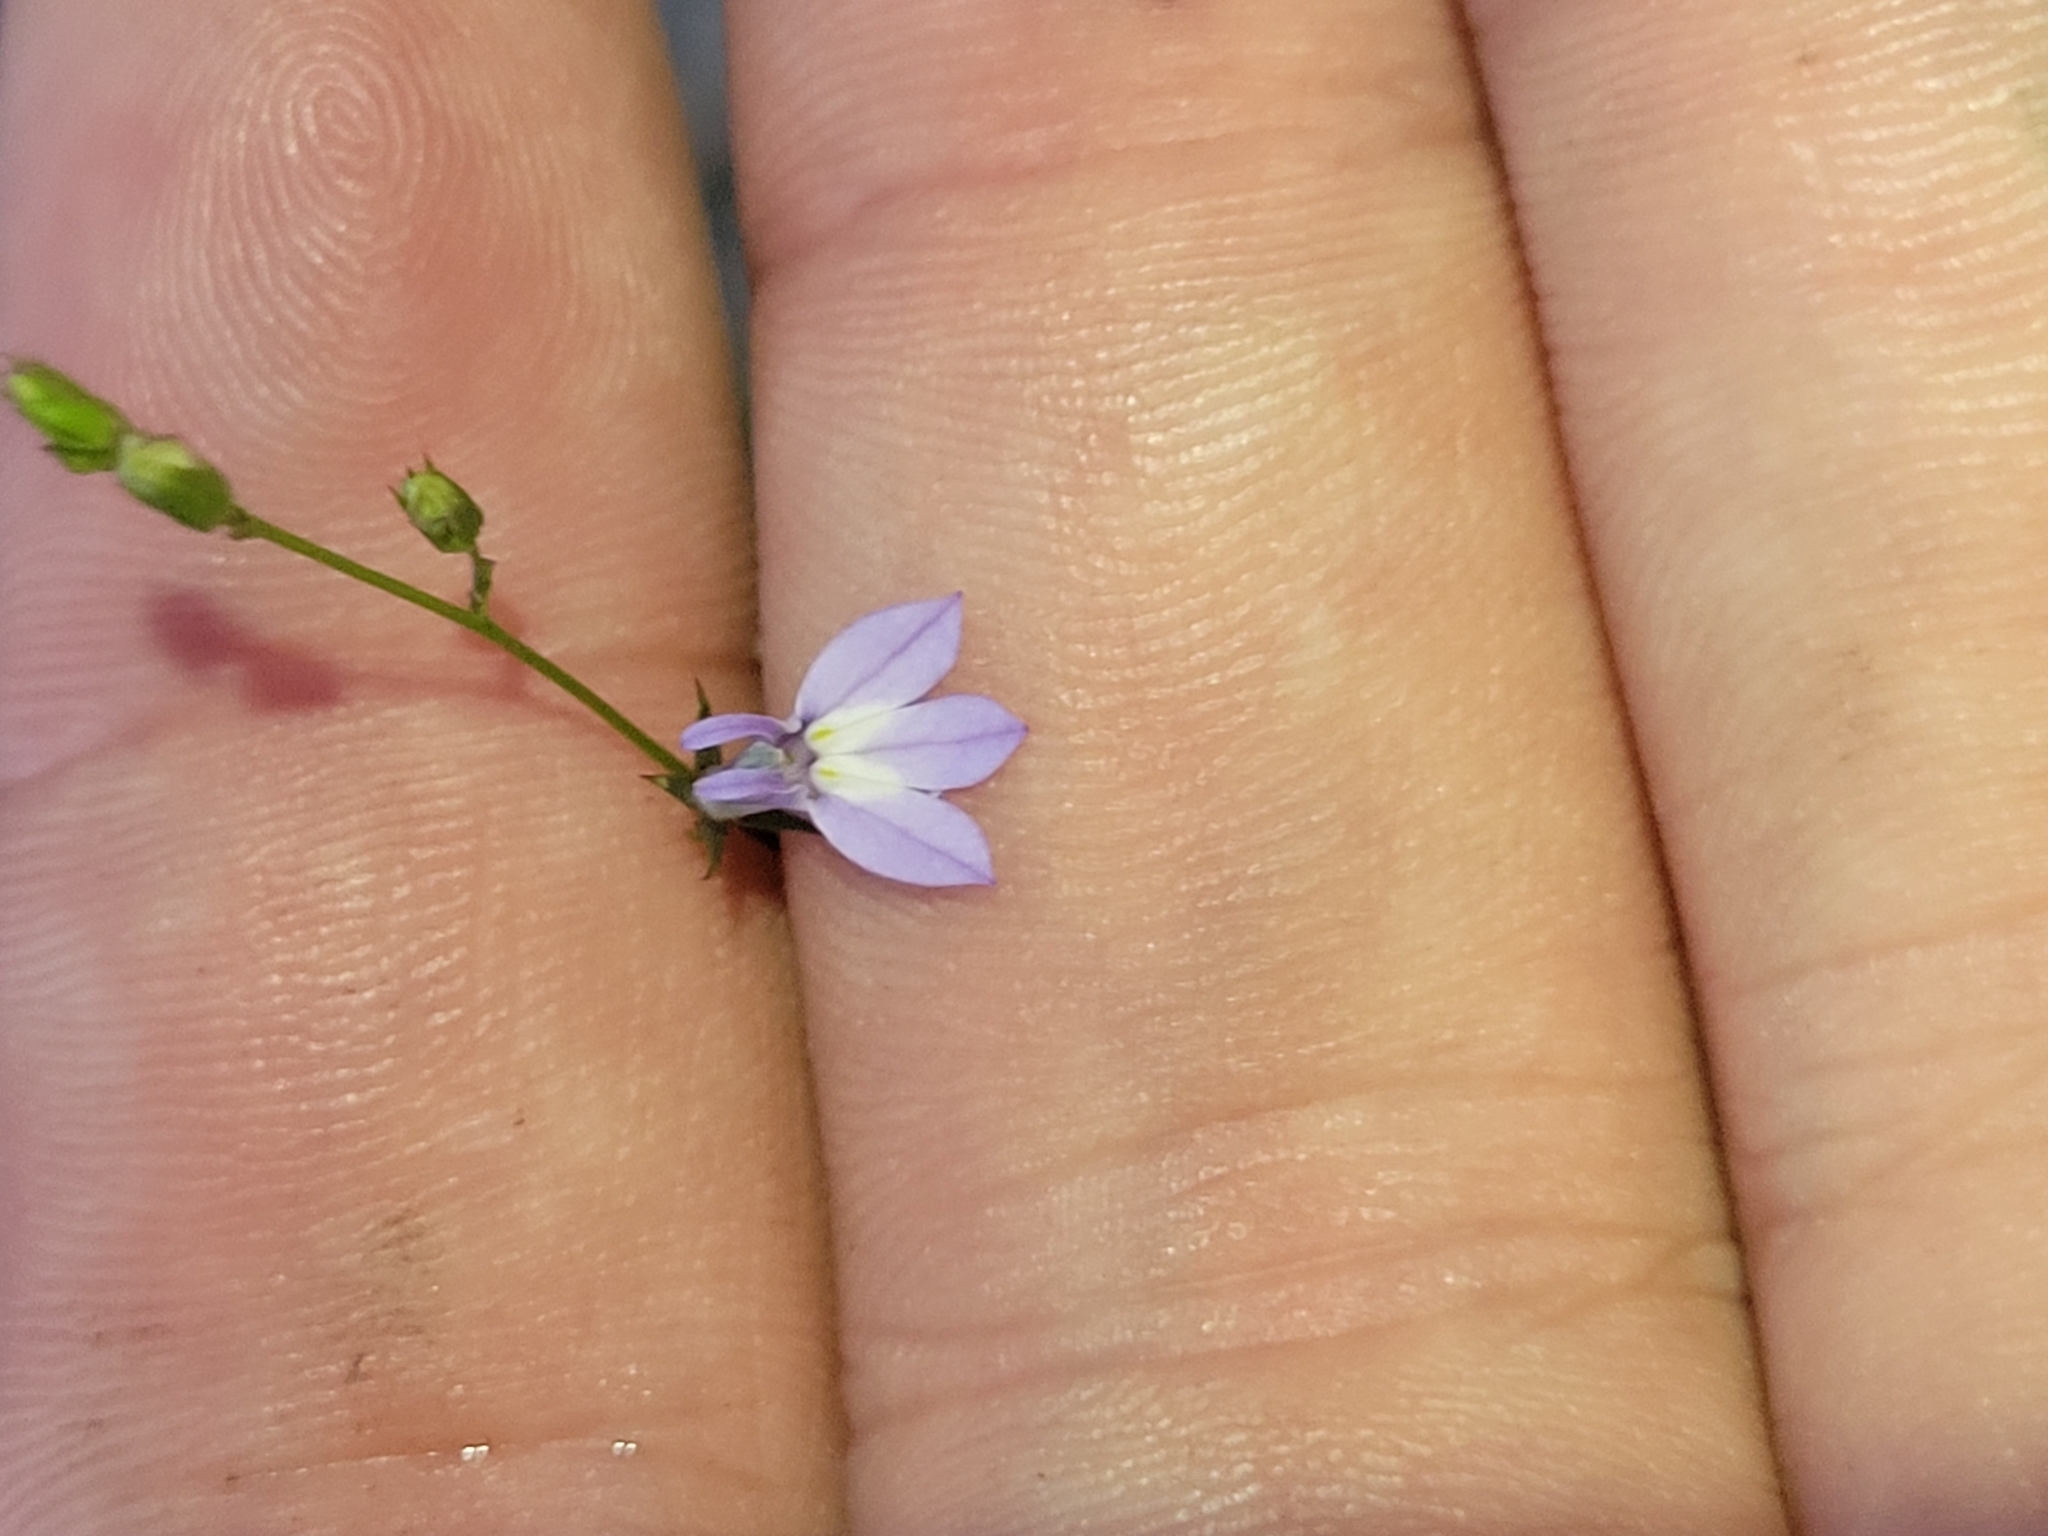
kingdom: Plantae
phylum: Tracheophyta
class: Magnoliopsida
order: Asterales
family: Campanulaceae
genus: Lobelia
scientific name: Lobelia nuttallii
